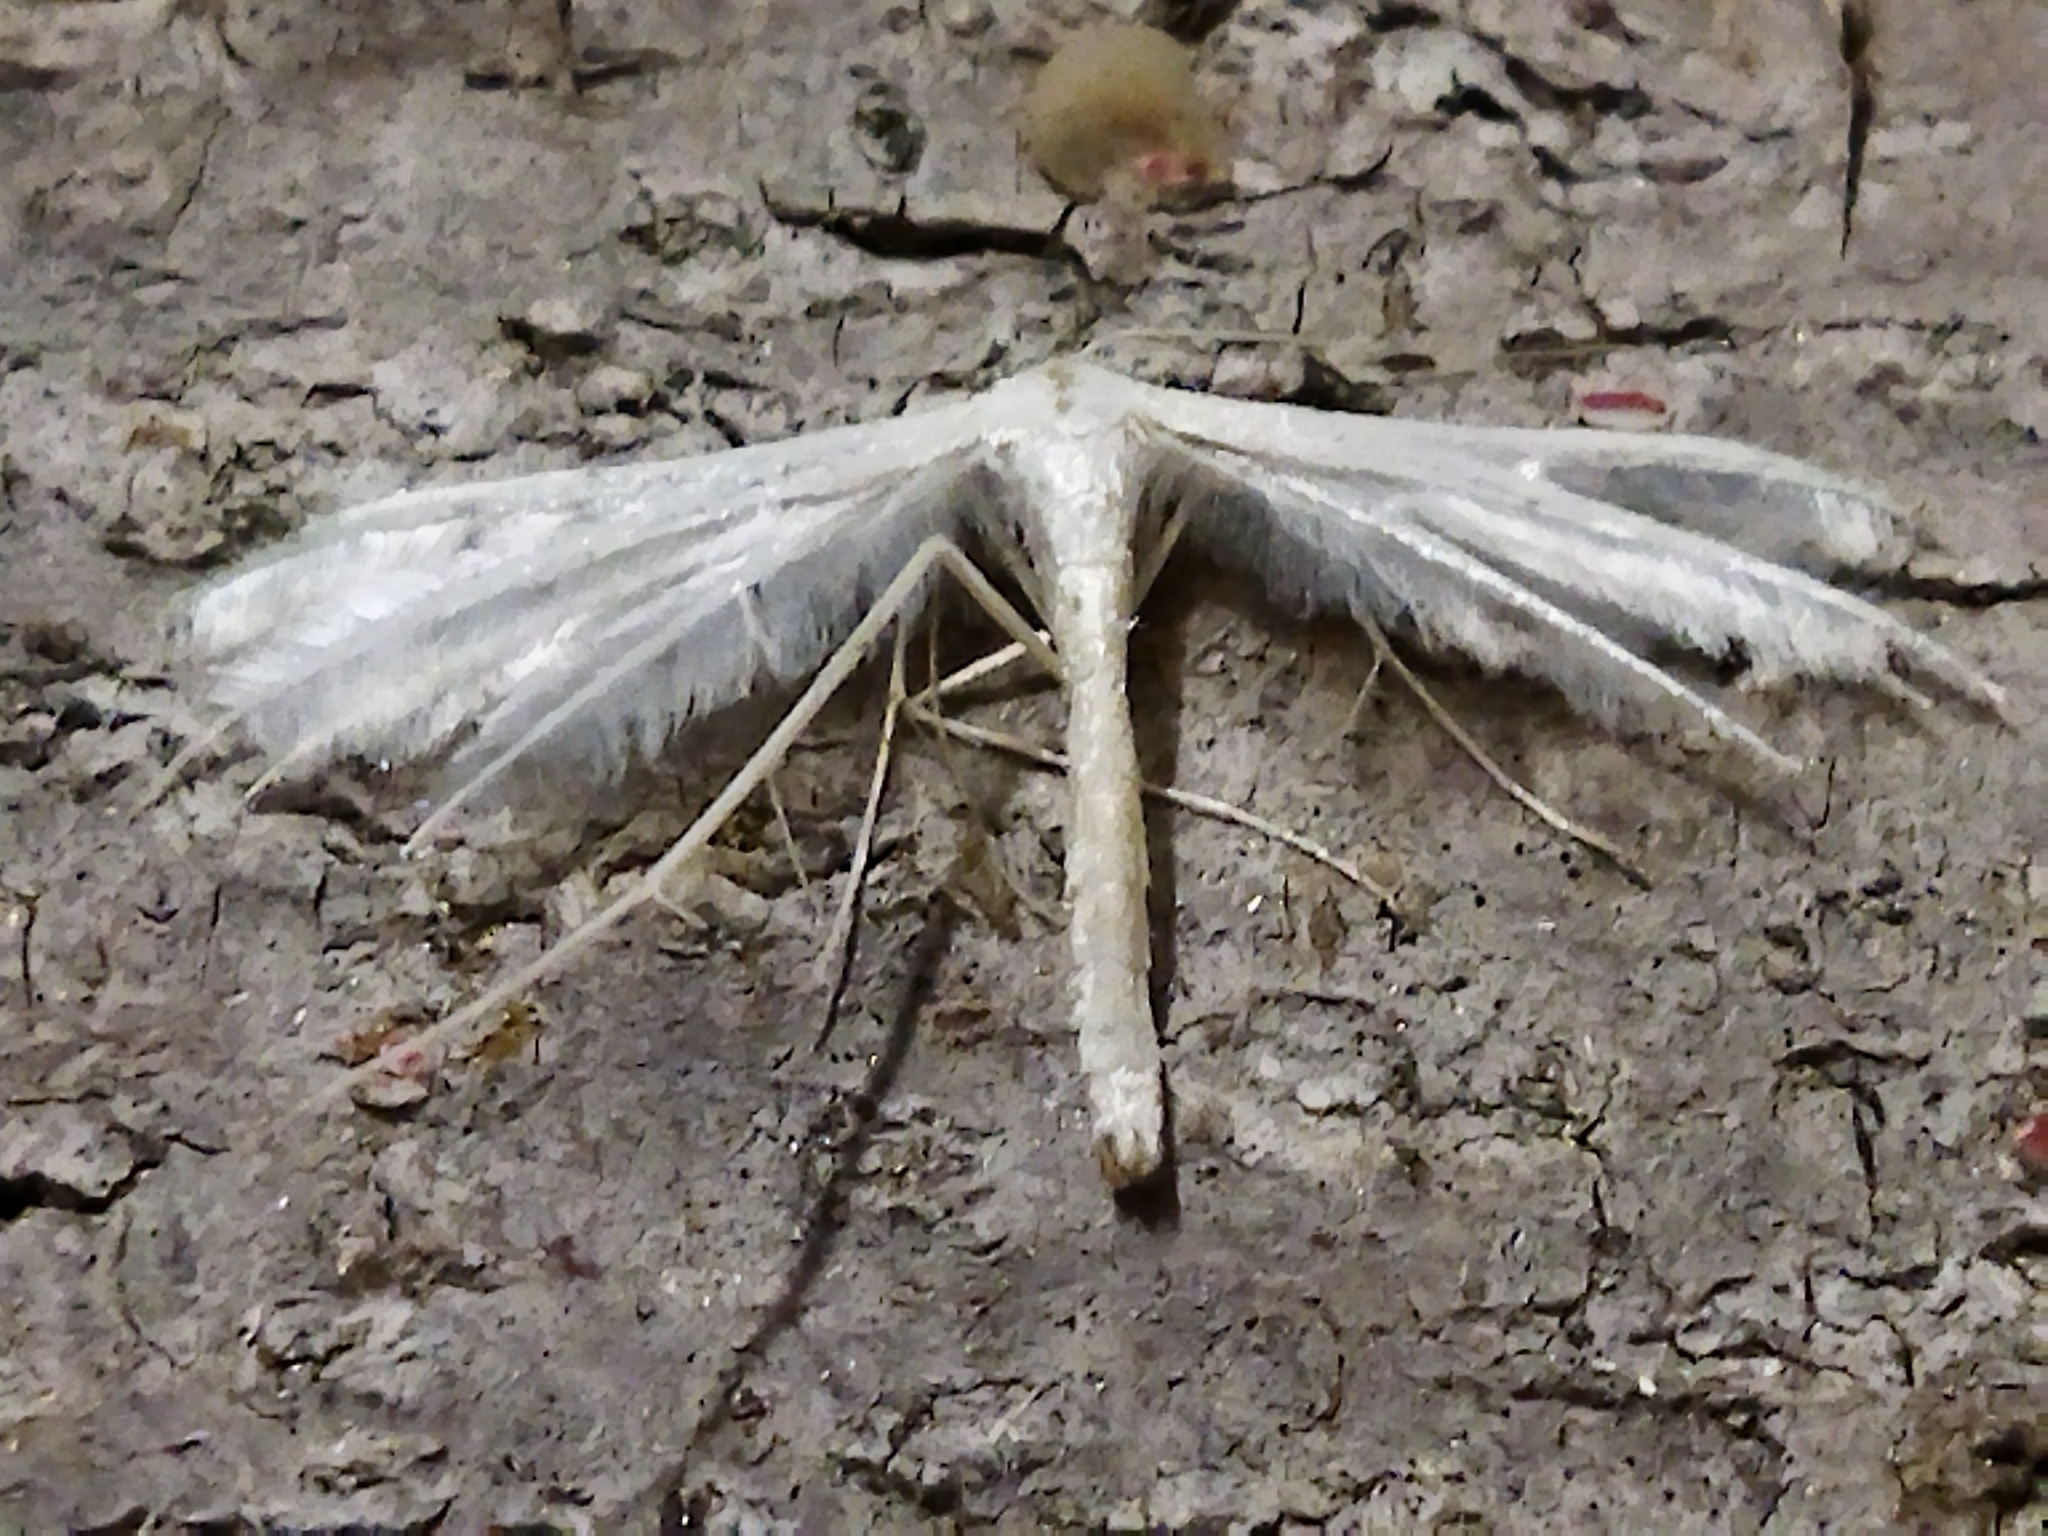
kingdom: Animalia
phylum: Arthropoda
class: Insecta
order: Lepidoptera
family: Pterophoridae
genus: Pterophorus
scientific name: Pterophorus pentadactyla
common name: White plume moth
